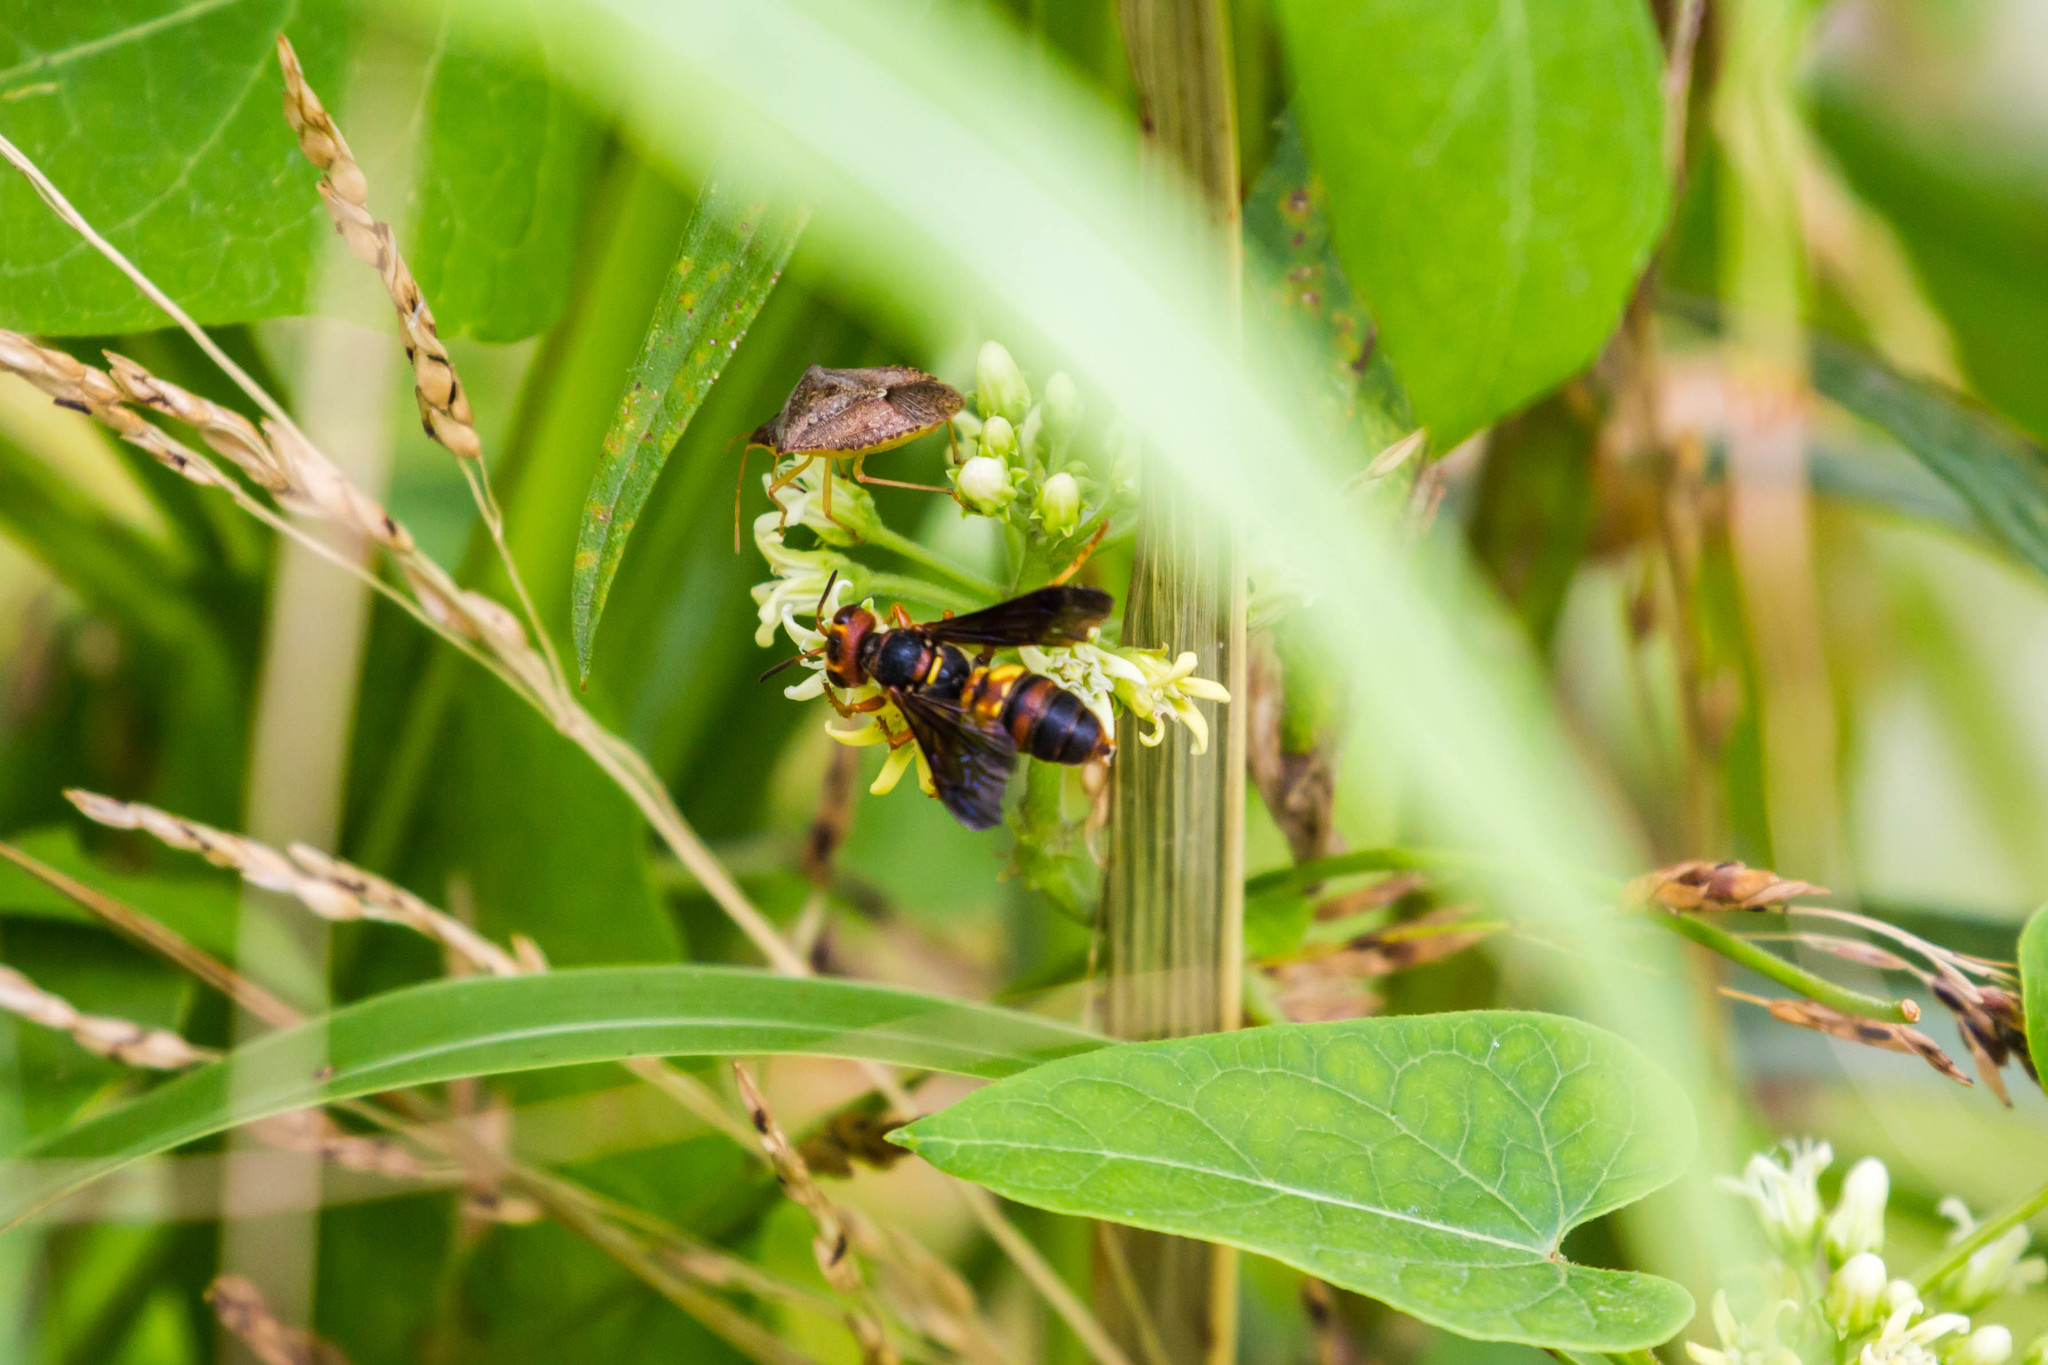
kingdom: Animalia
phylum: Arthropoda
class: Insecta
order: Hymenoptera
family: Crabronidae
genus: Cerceris
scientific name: Cerceris bicornuta
